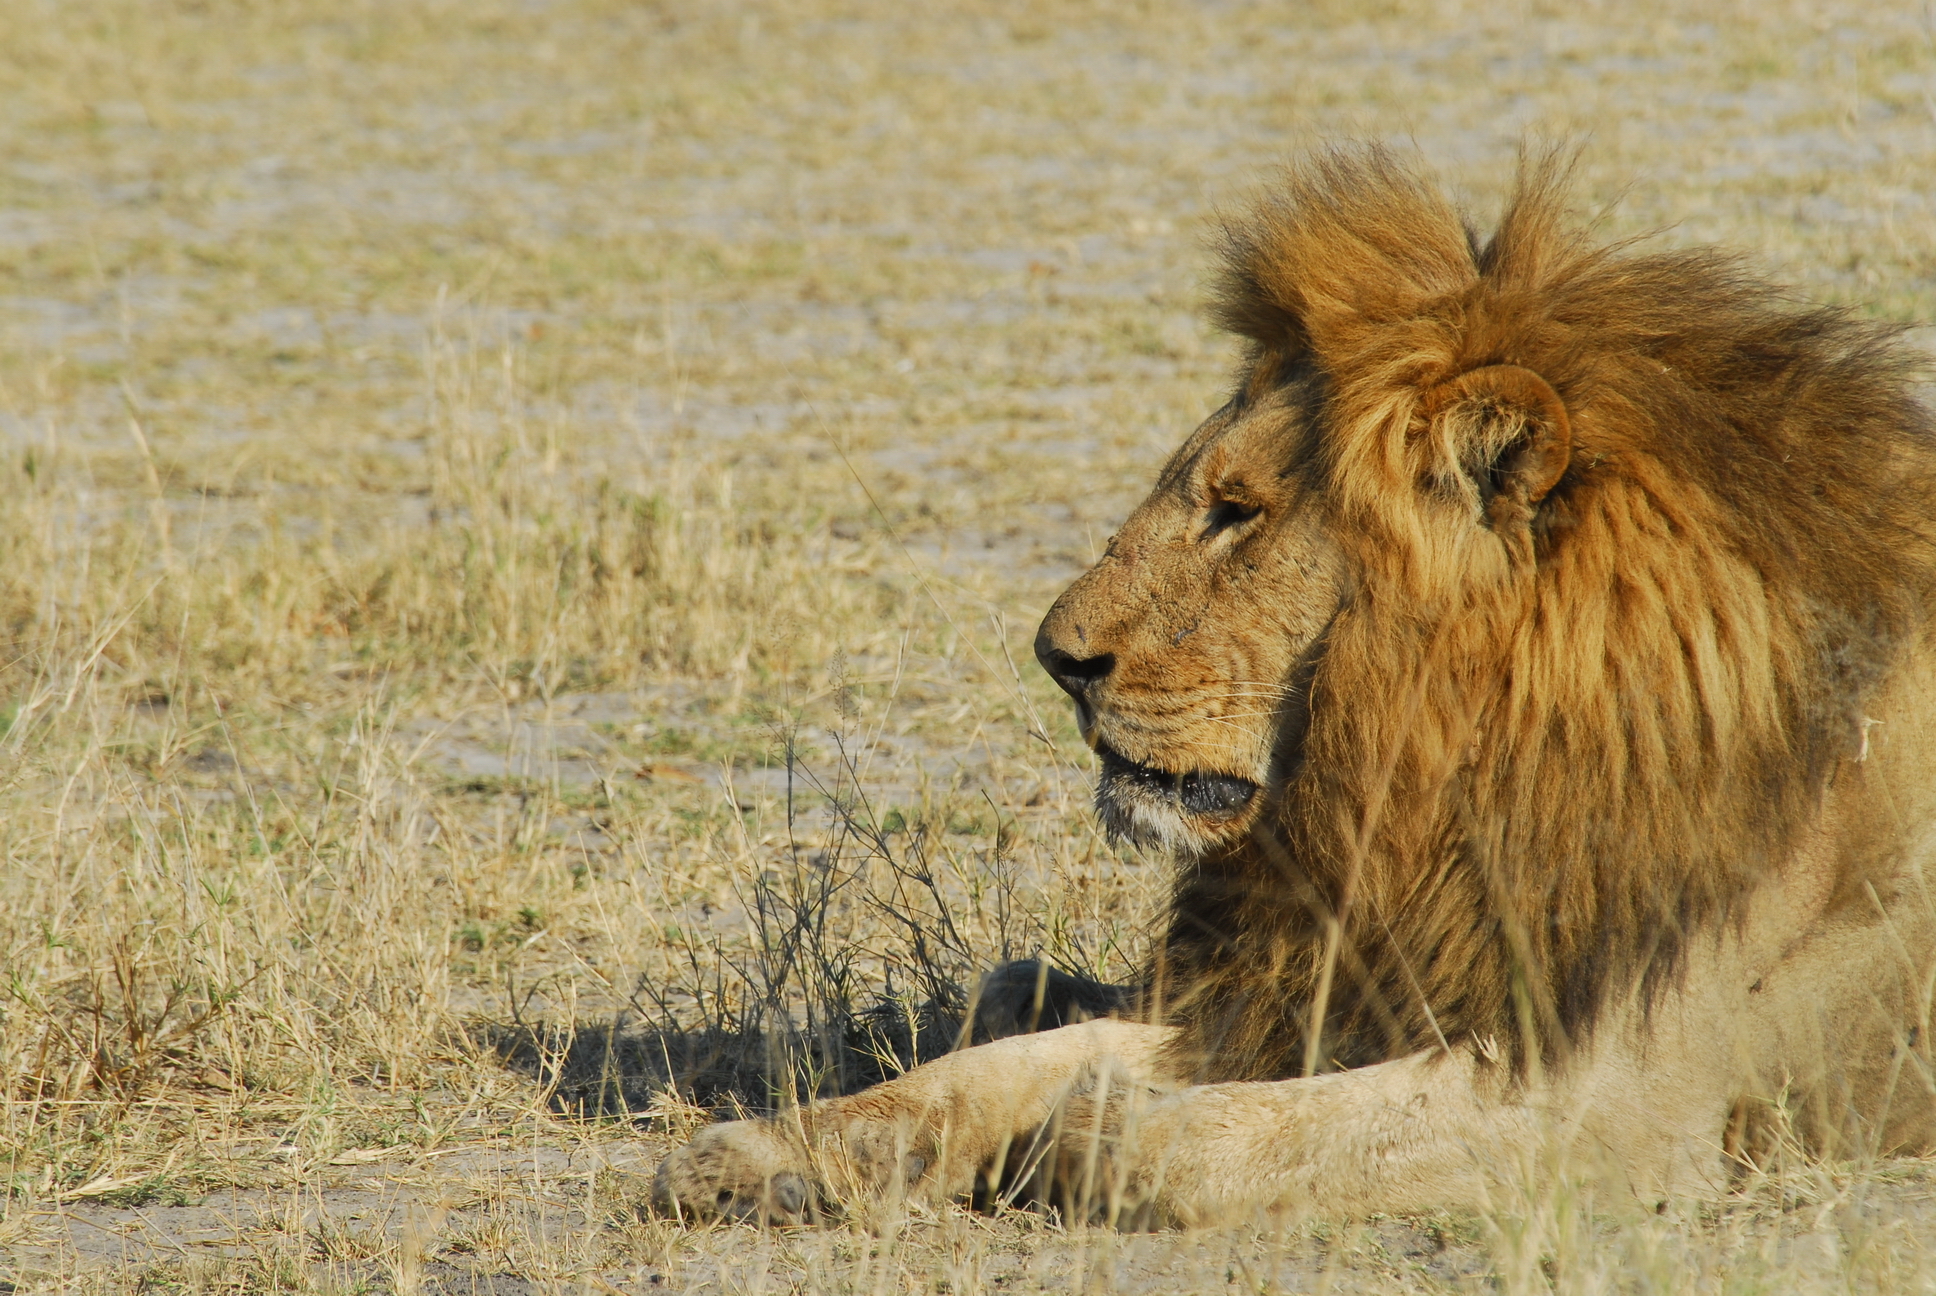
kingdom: Animalia
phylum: Chordata
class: Mammalia
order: Carnivora
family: Felidae
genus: Panthera
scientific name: Panthera leo
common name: Lion
